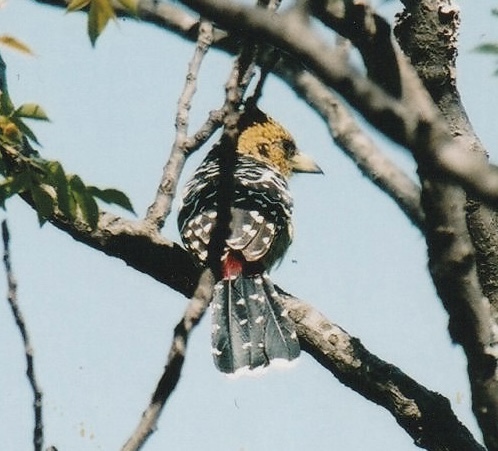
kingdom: Animalia
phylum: Chordata
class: Aves
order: Piciformes
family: Lybiidae
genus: Trachyphonus
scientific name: Trachyphonus vaillantii
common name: Crested barbet
